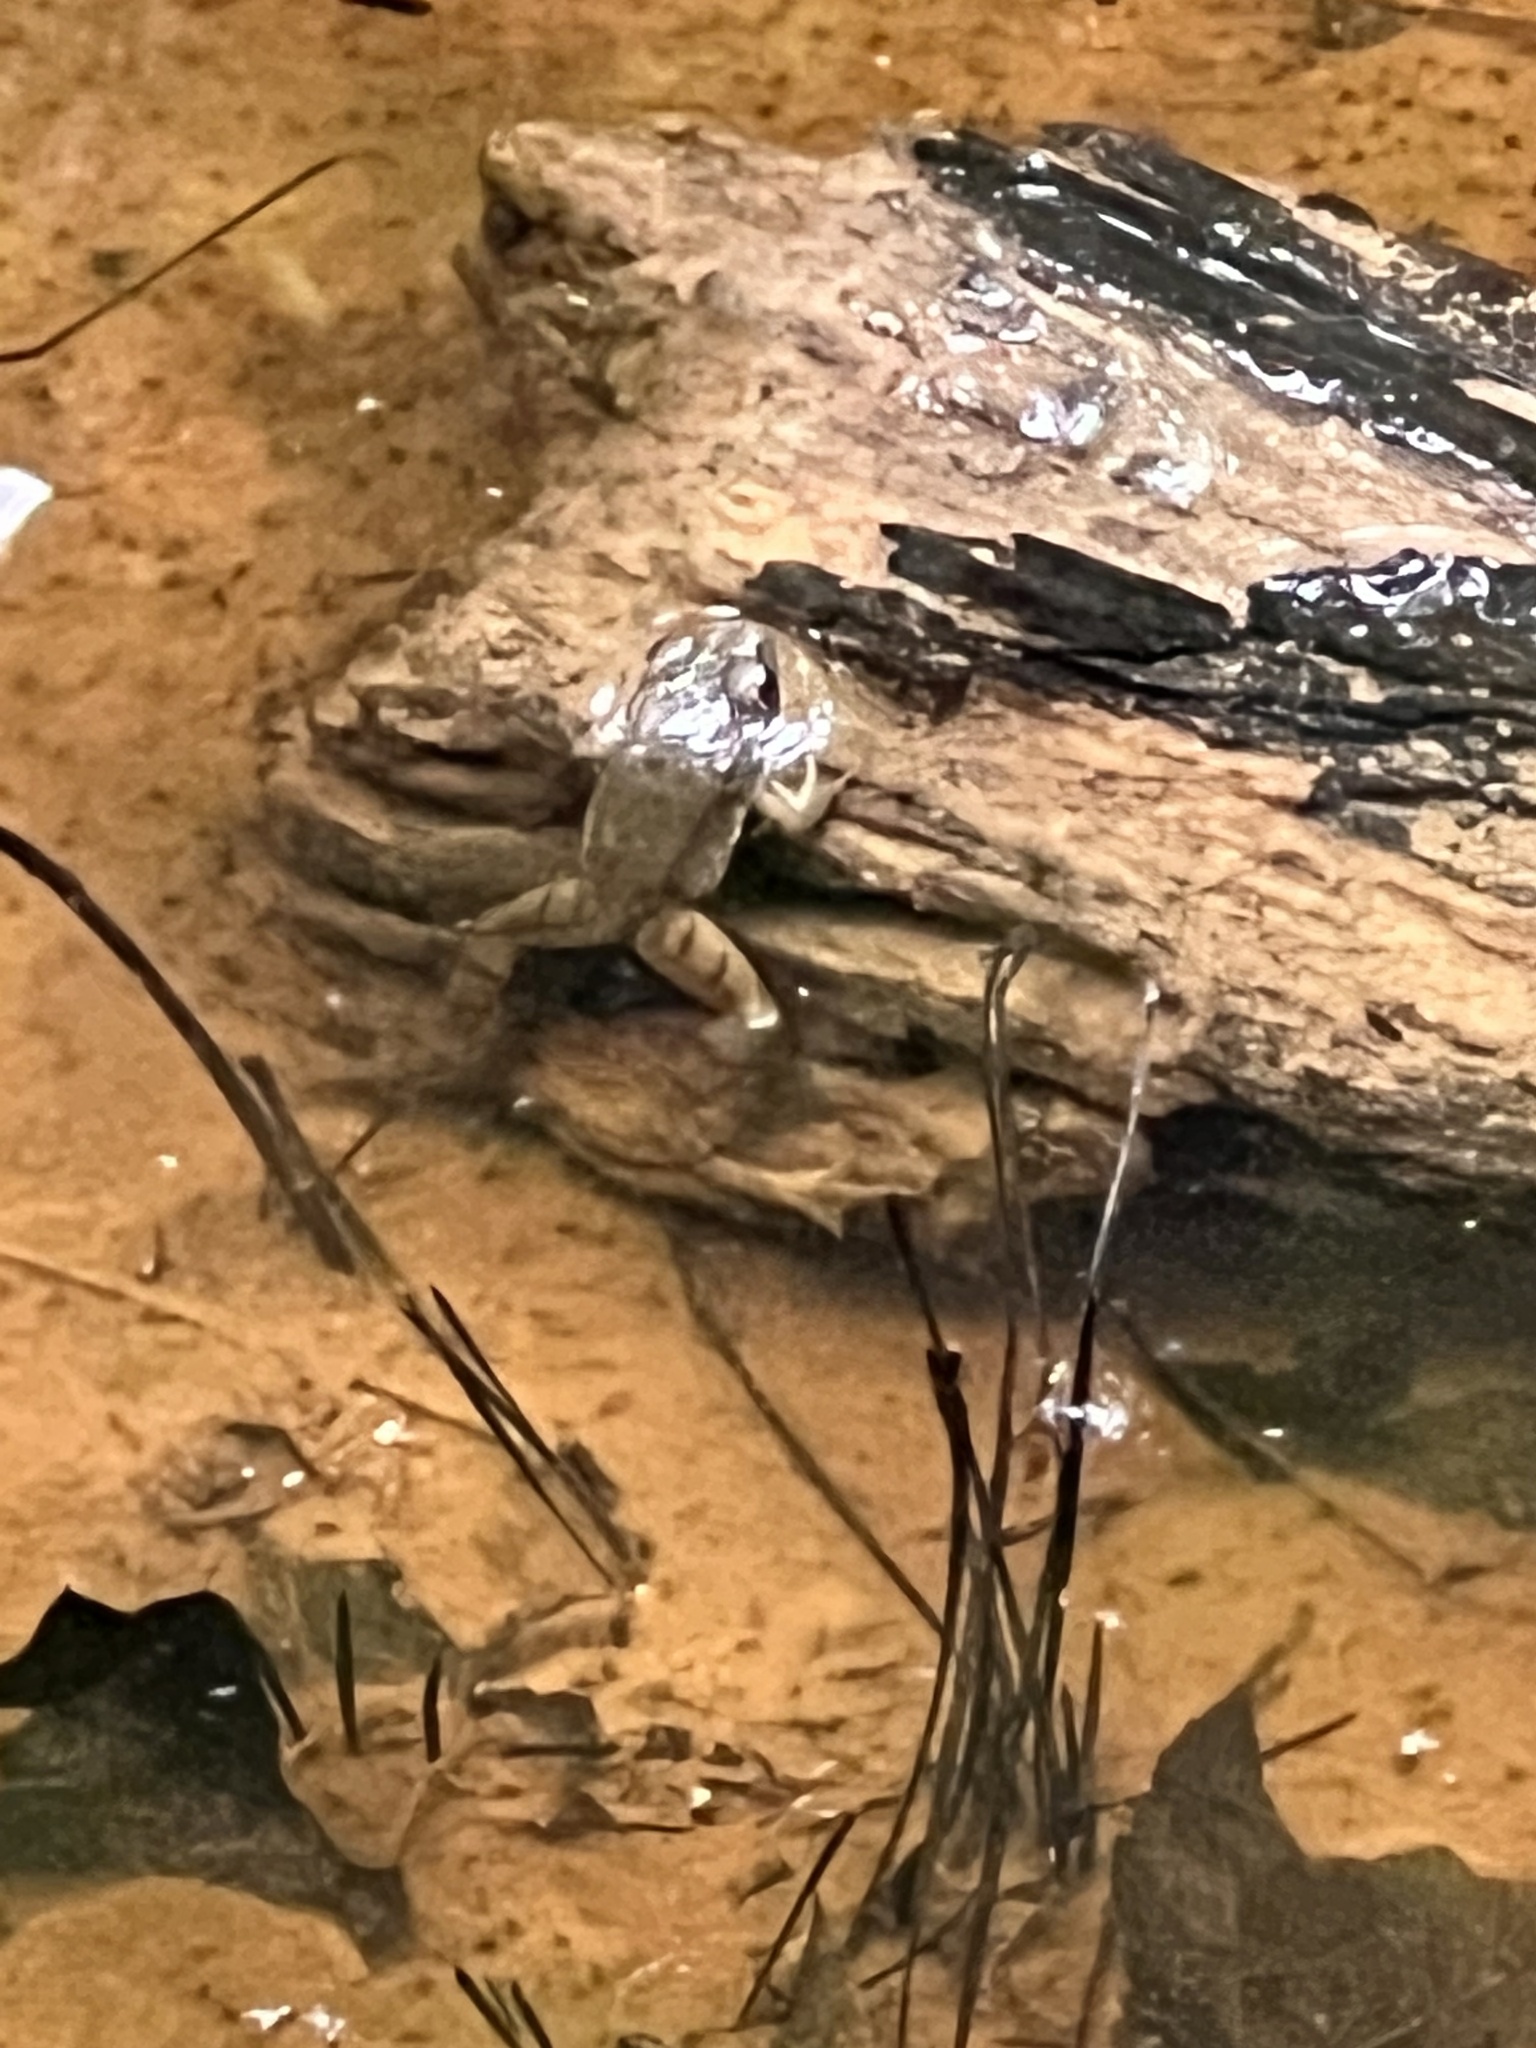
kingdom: Animalia
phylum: Chordata
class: Amphibia
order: Anura
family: Ranidae
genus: Lithobates
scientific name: Lithobates clamitans
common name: Green frog
